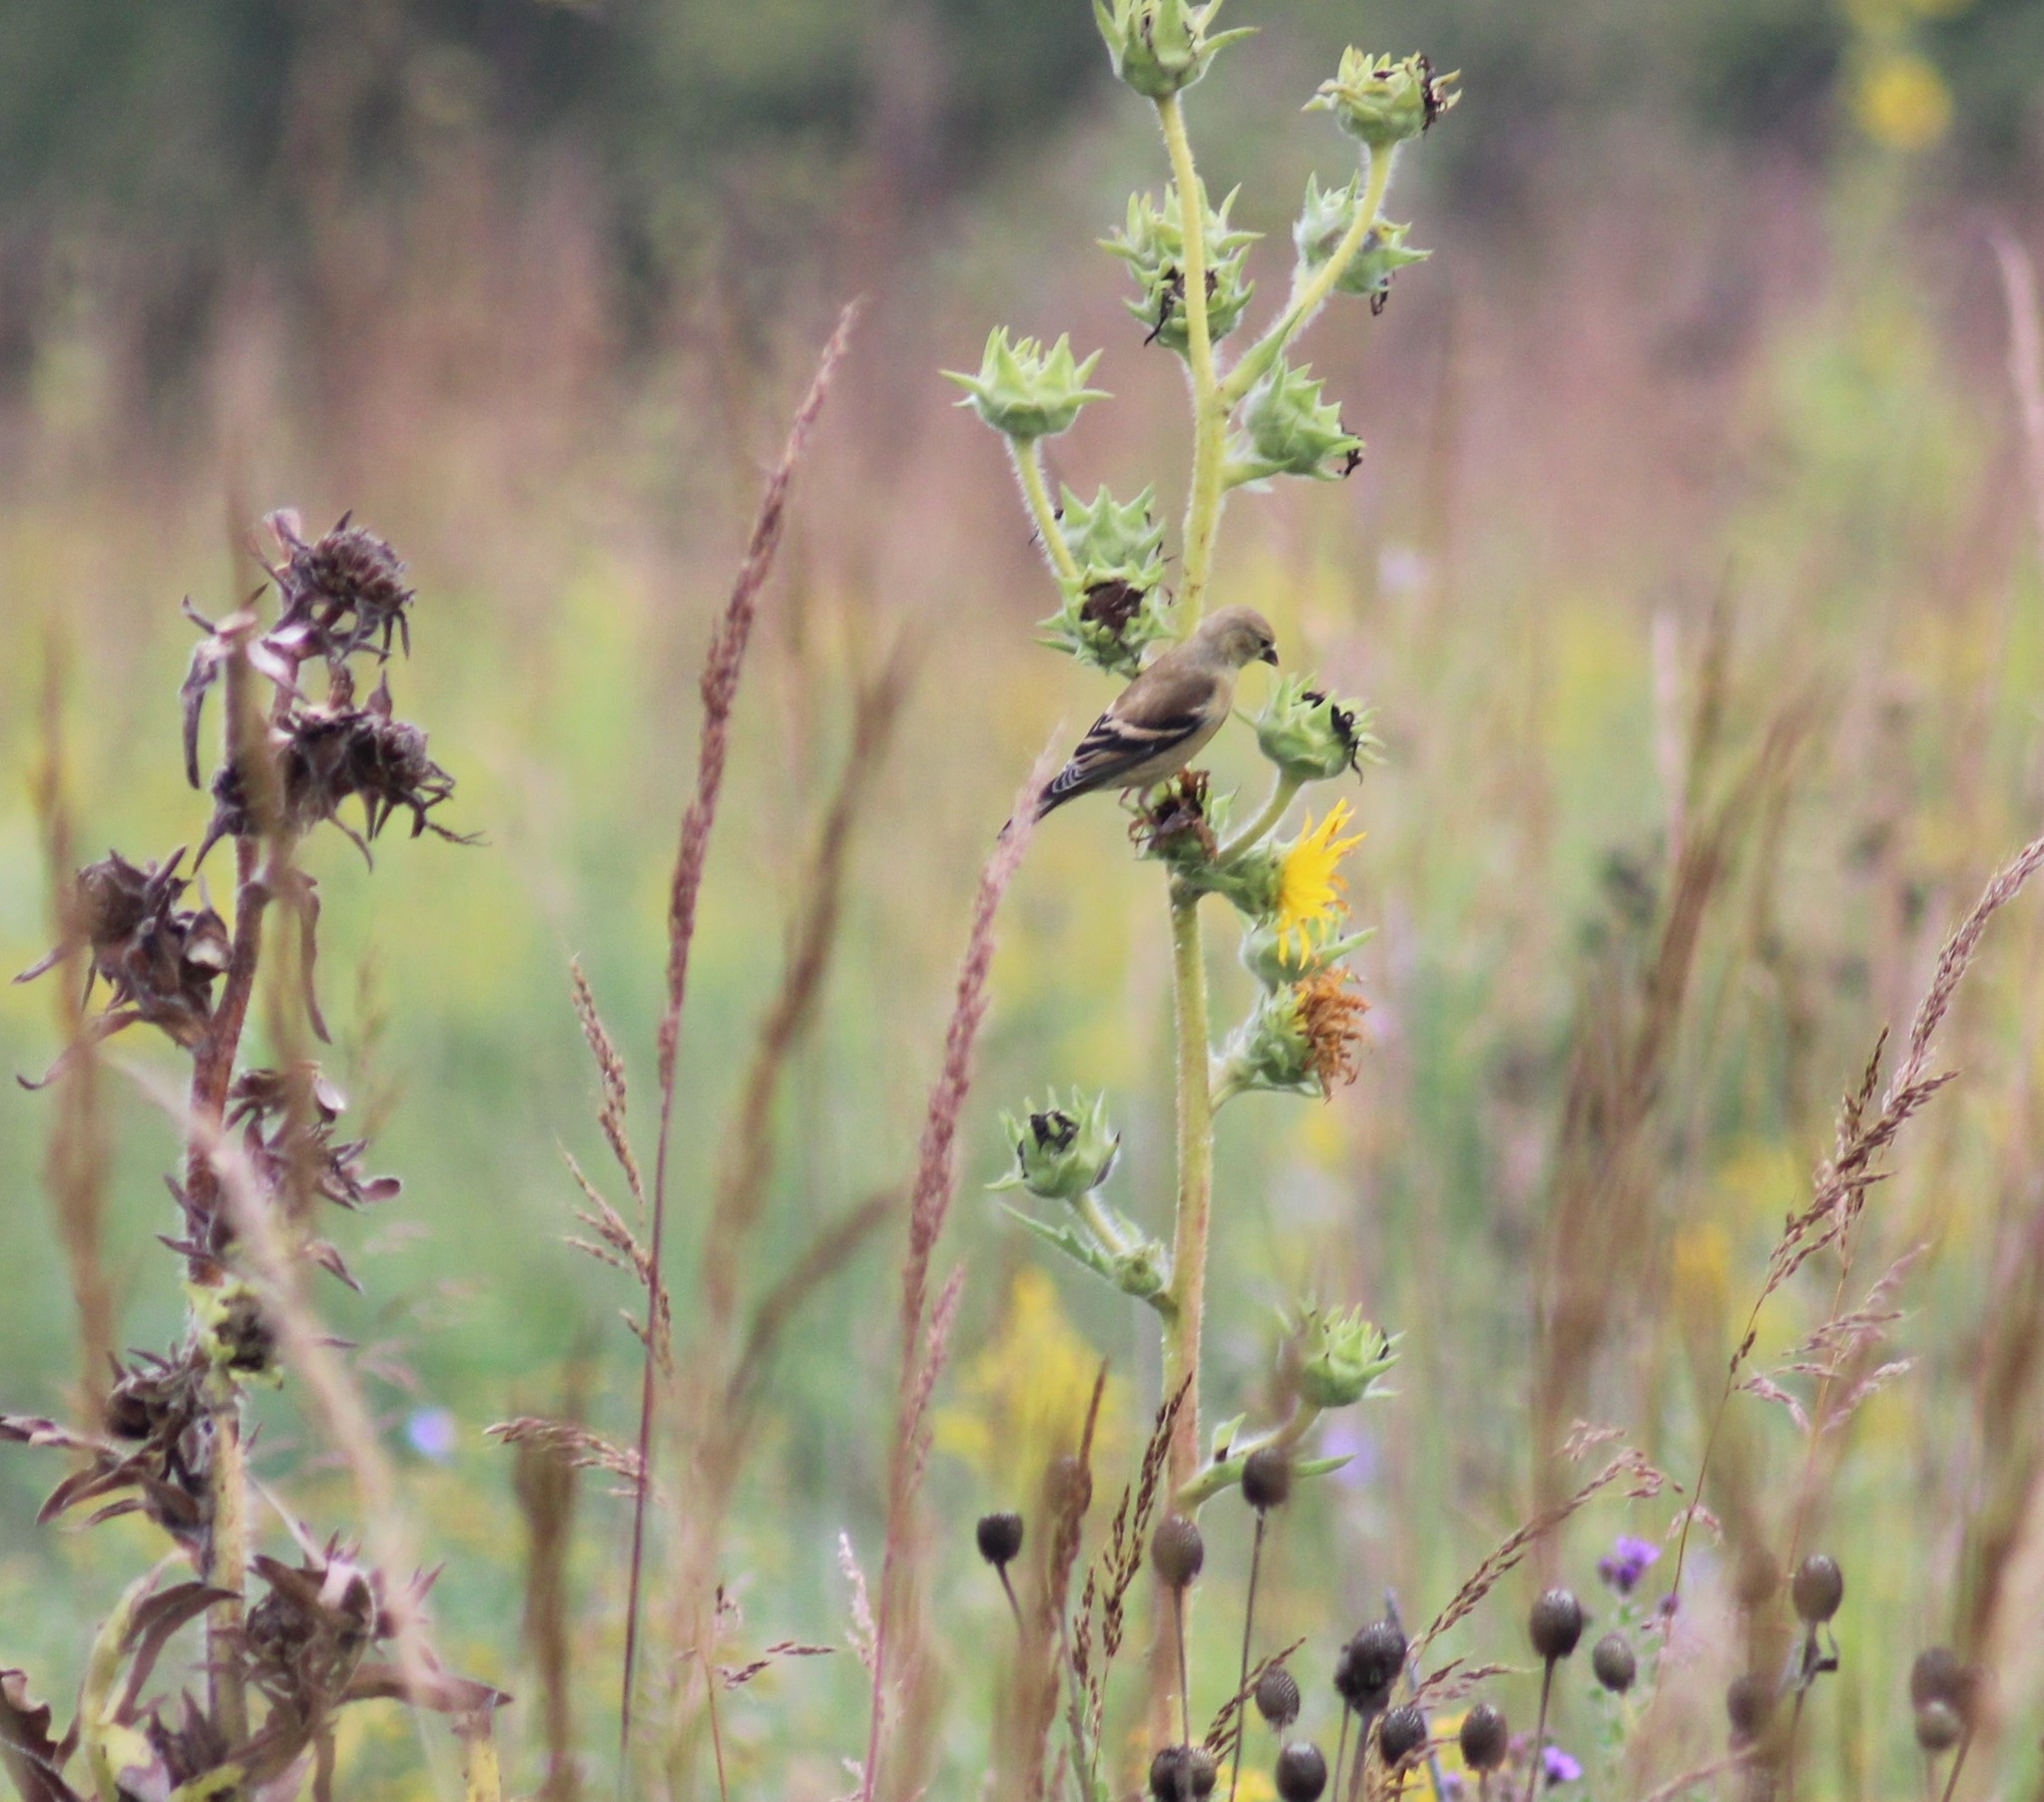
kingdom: Animalia
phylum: Chordata
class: Aves
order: Passeriformes
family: Fringillidae
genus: Spinus
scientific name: Spinus tristis
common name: American goldfinch
